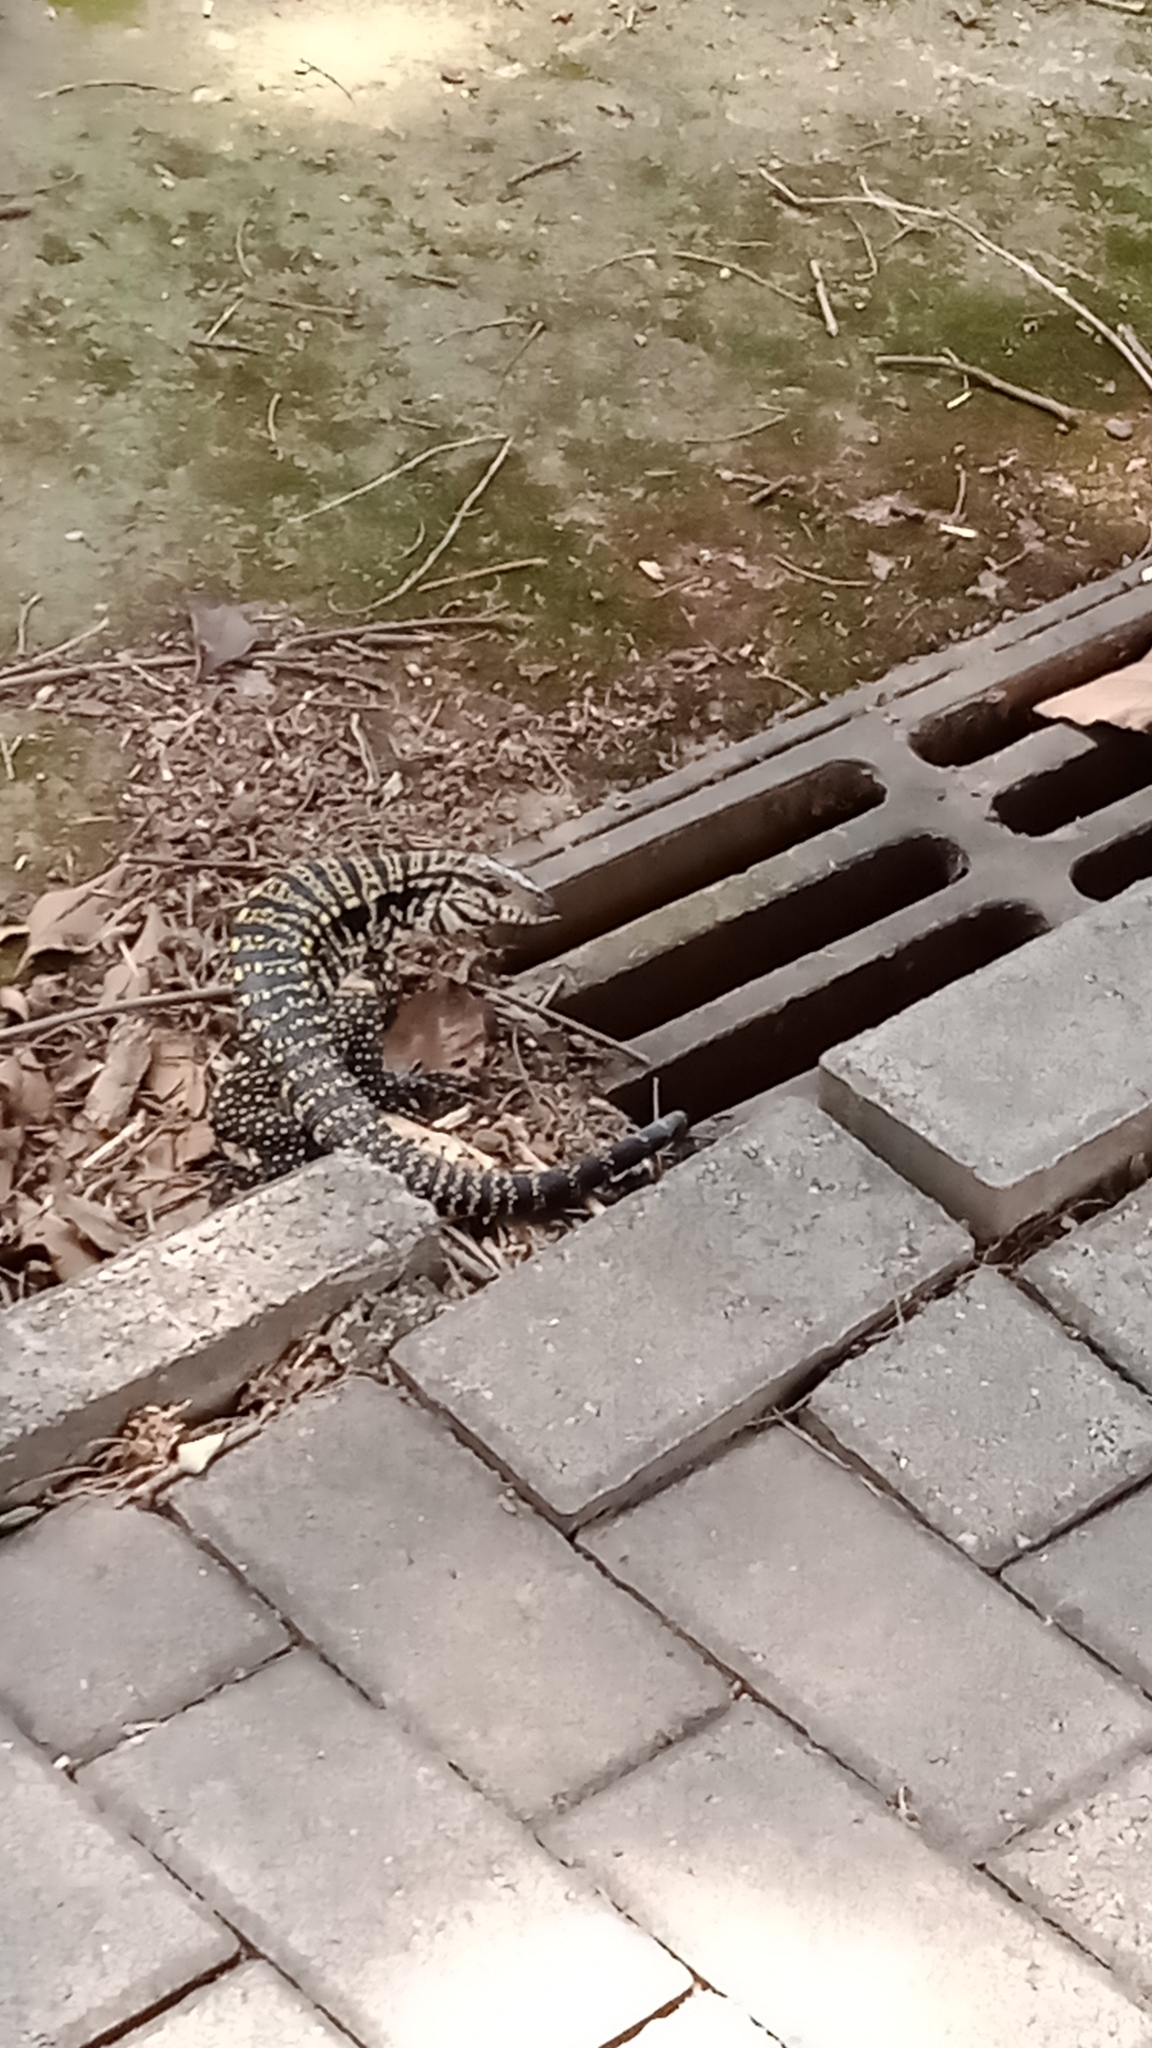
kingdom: Animalia
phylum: Chordata
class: Squamata
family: Teiidae
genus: Salvator
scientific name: Salvator merianae
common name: Argentine black and white tegu
